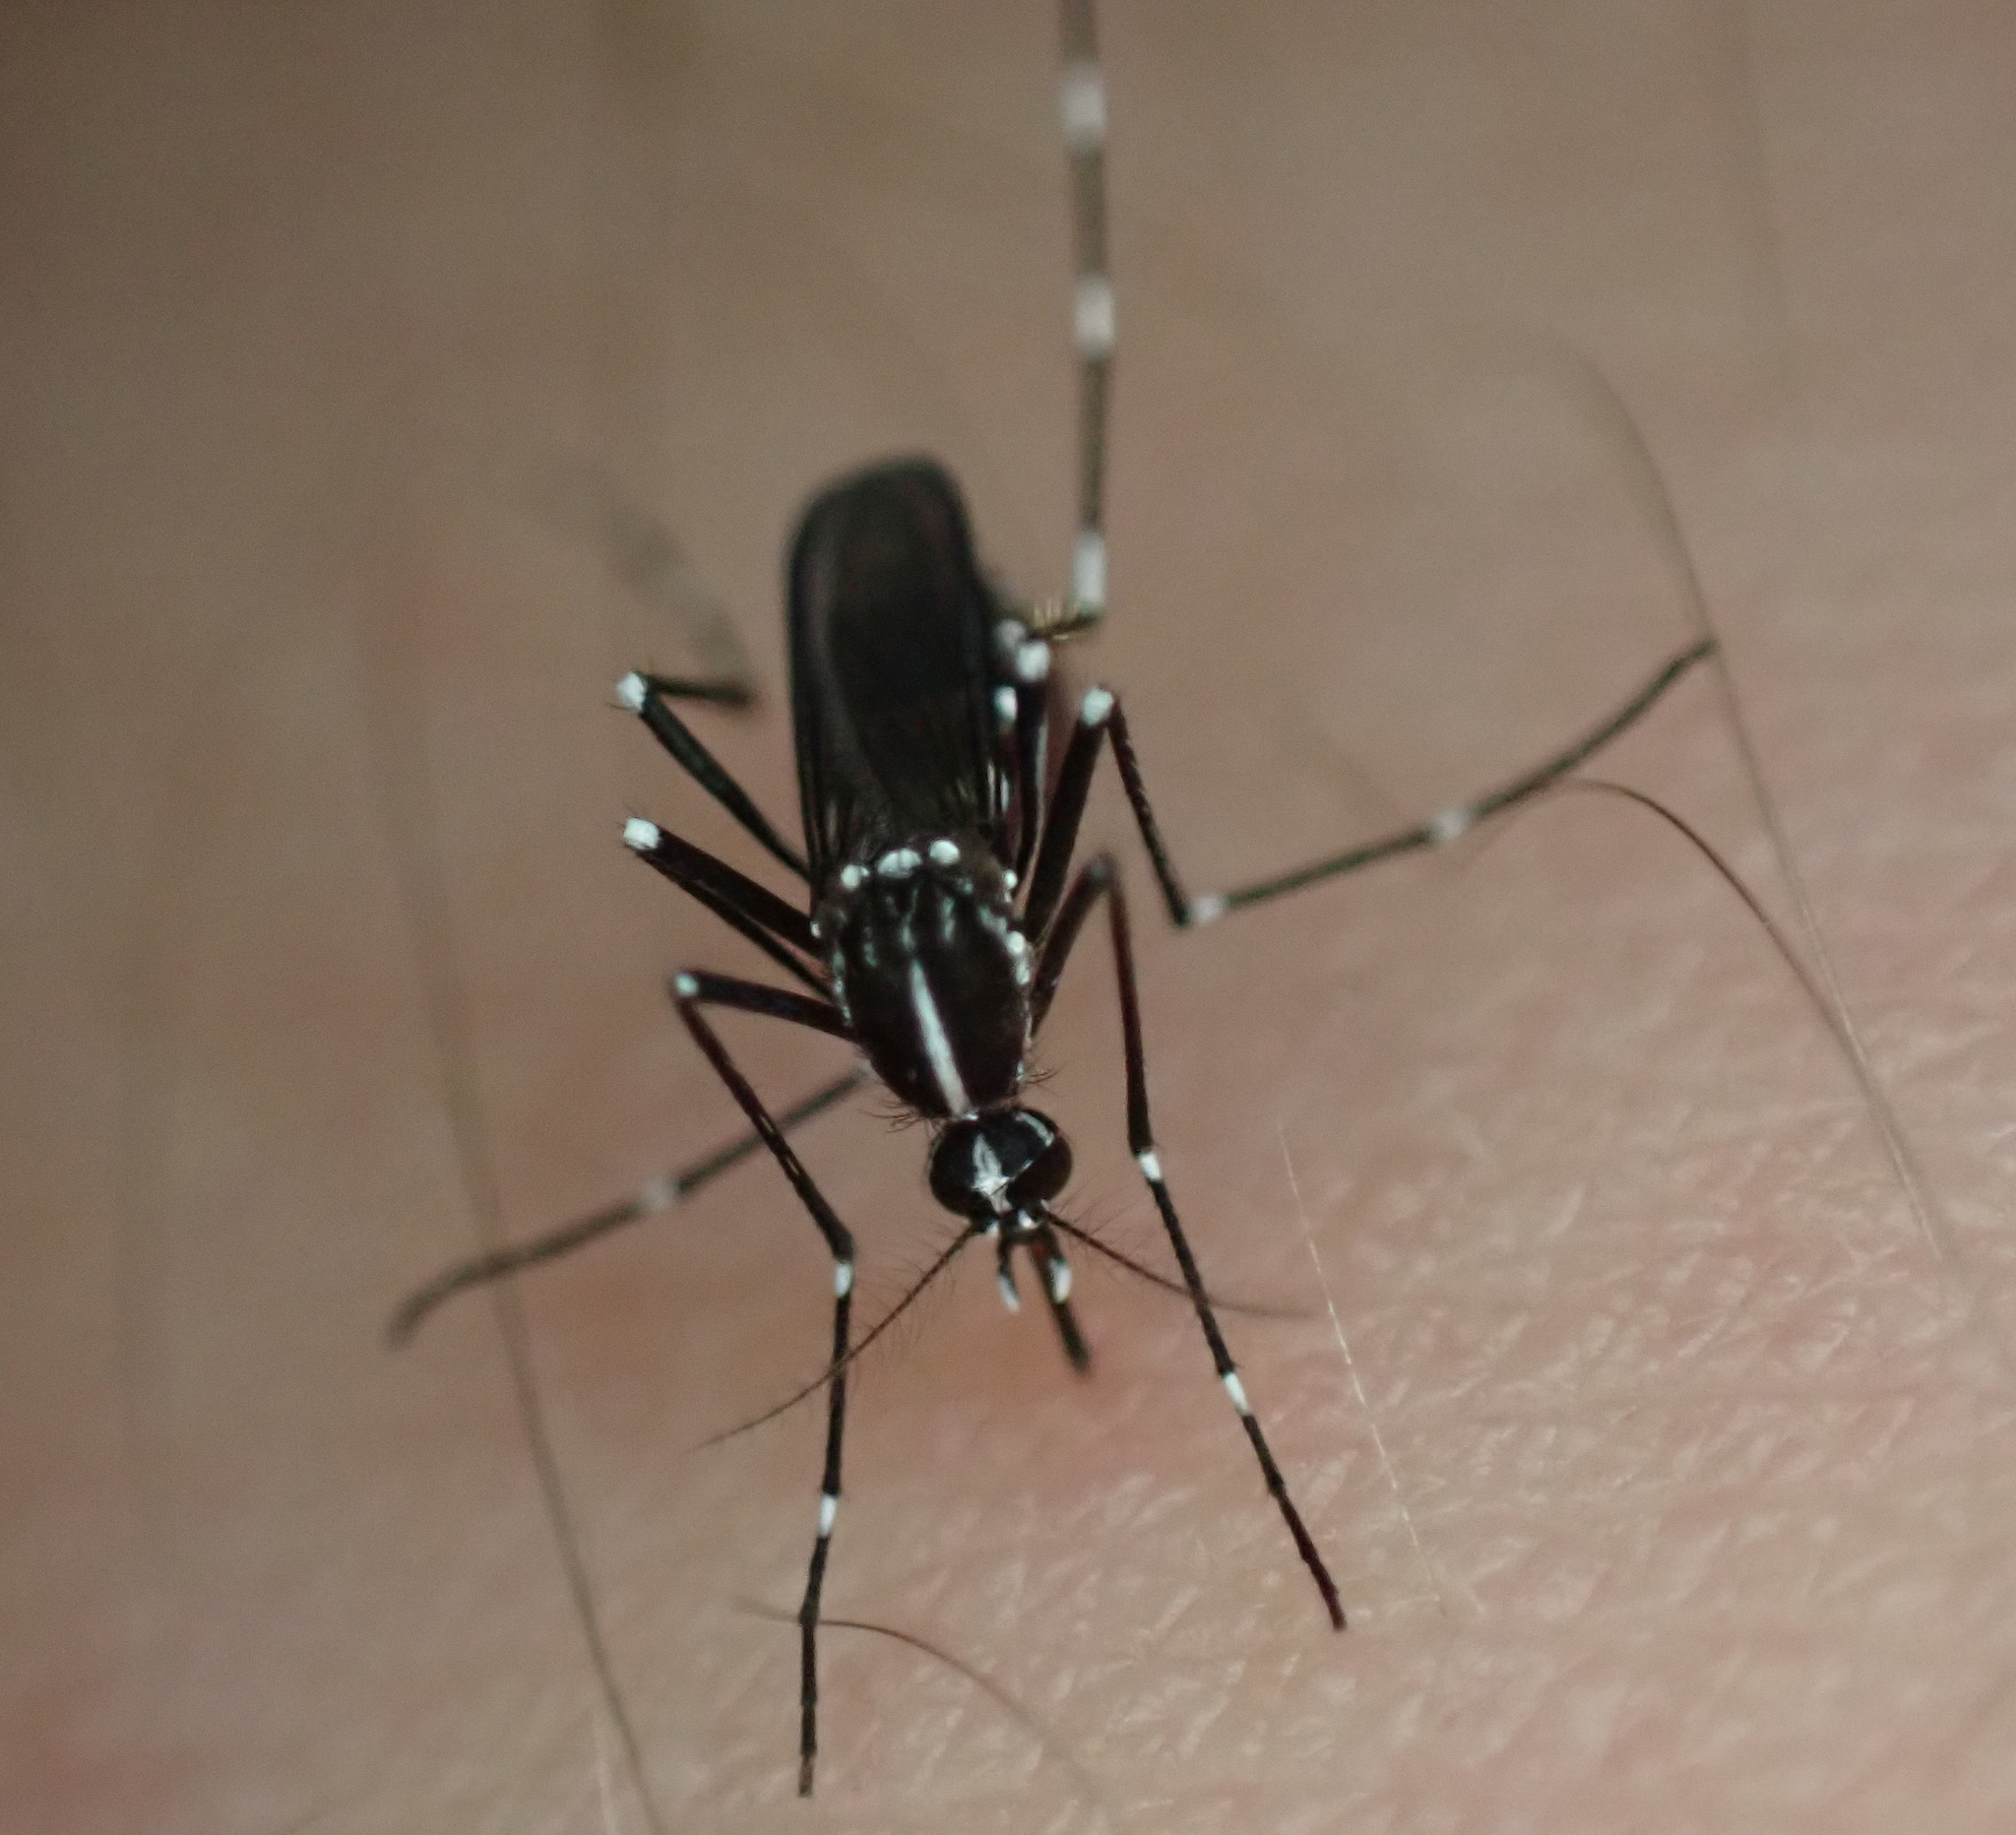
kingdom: Animalia
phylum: Arthropoda
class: Insecta
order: Diptera
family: Culicidae
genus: Aedes
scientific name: Aedes albopictus
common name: Tiger mosquito
